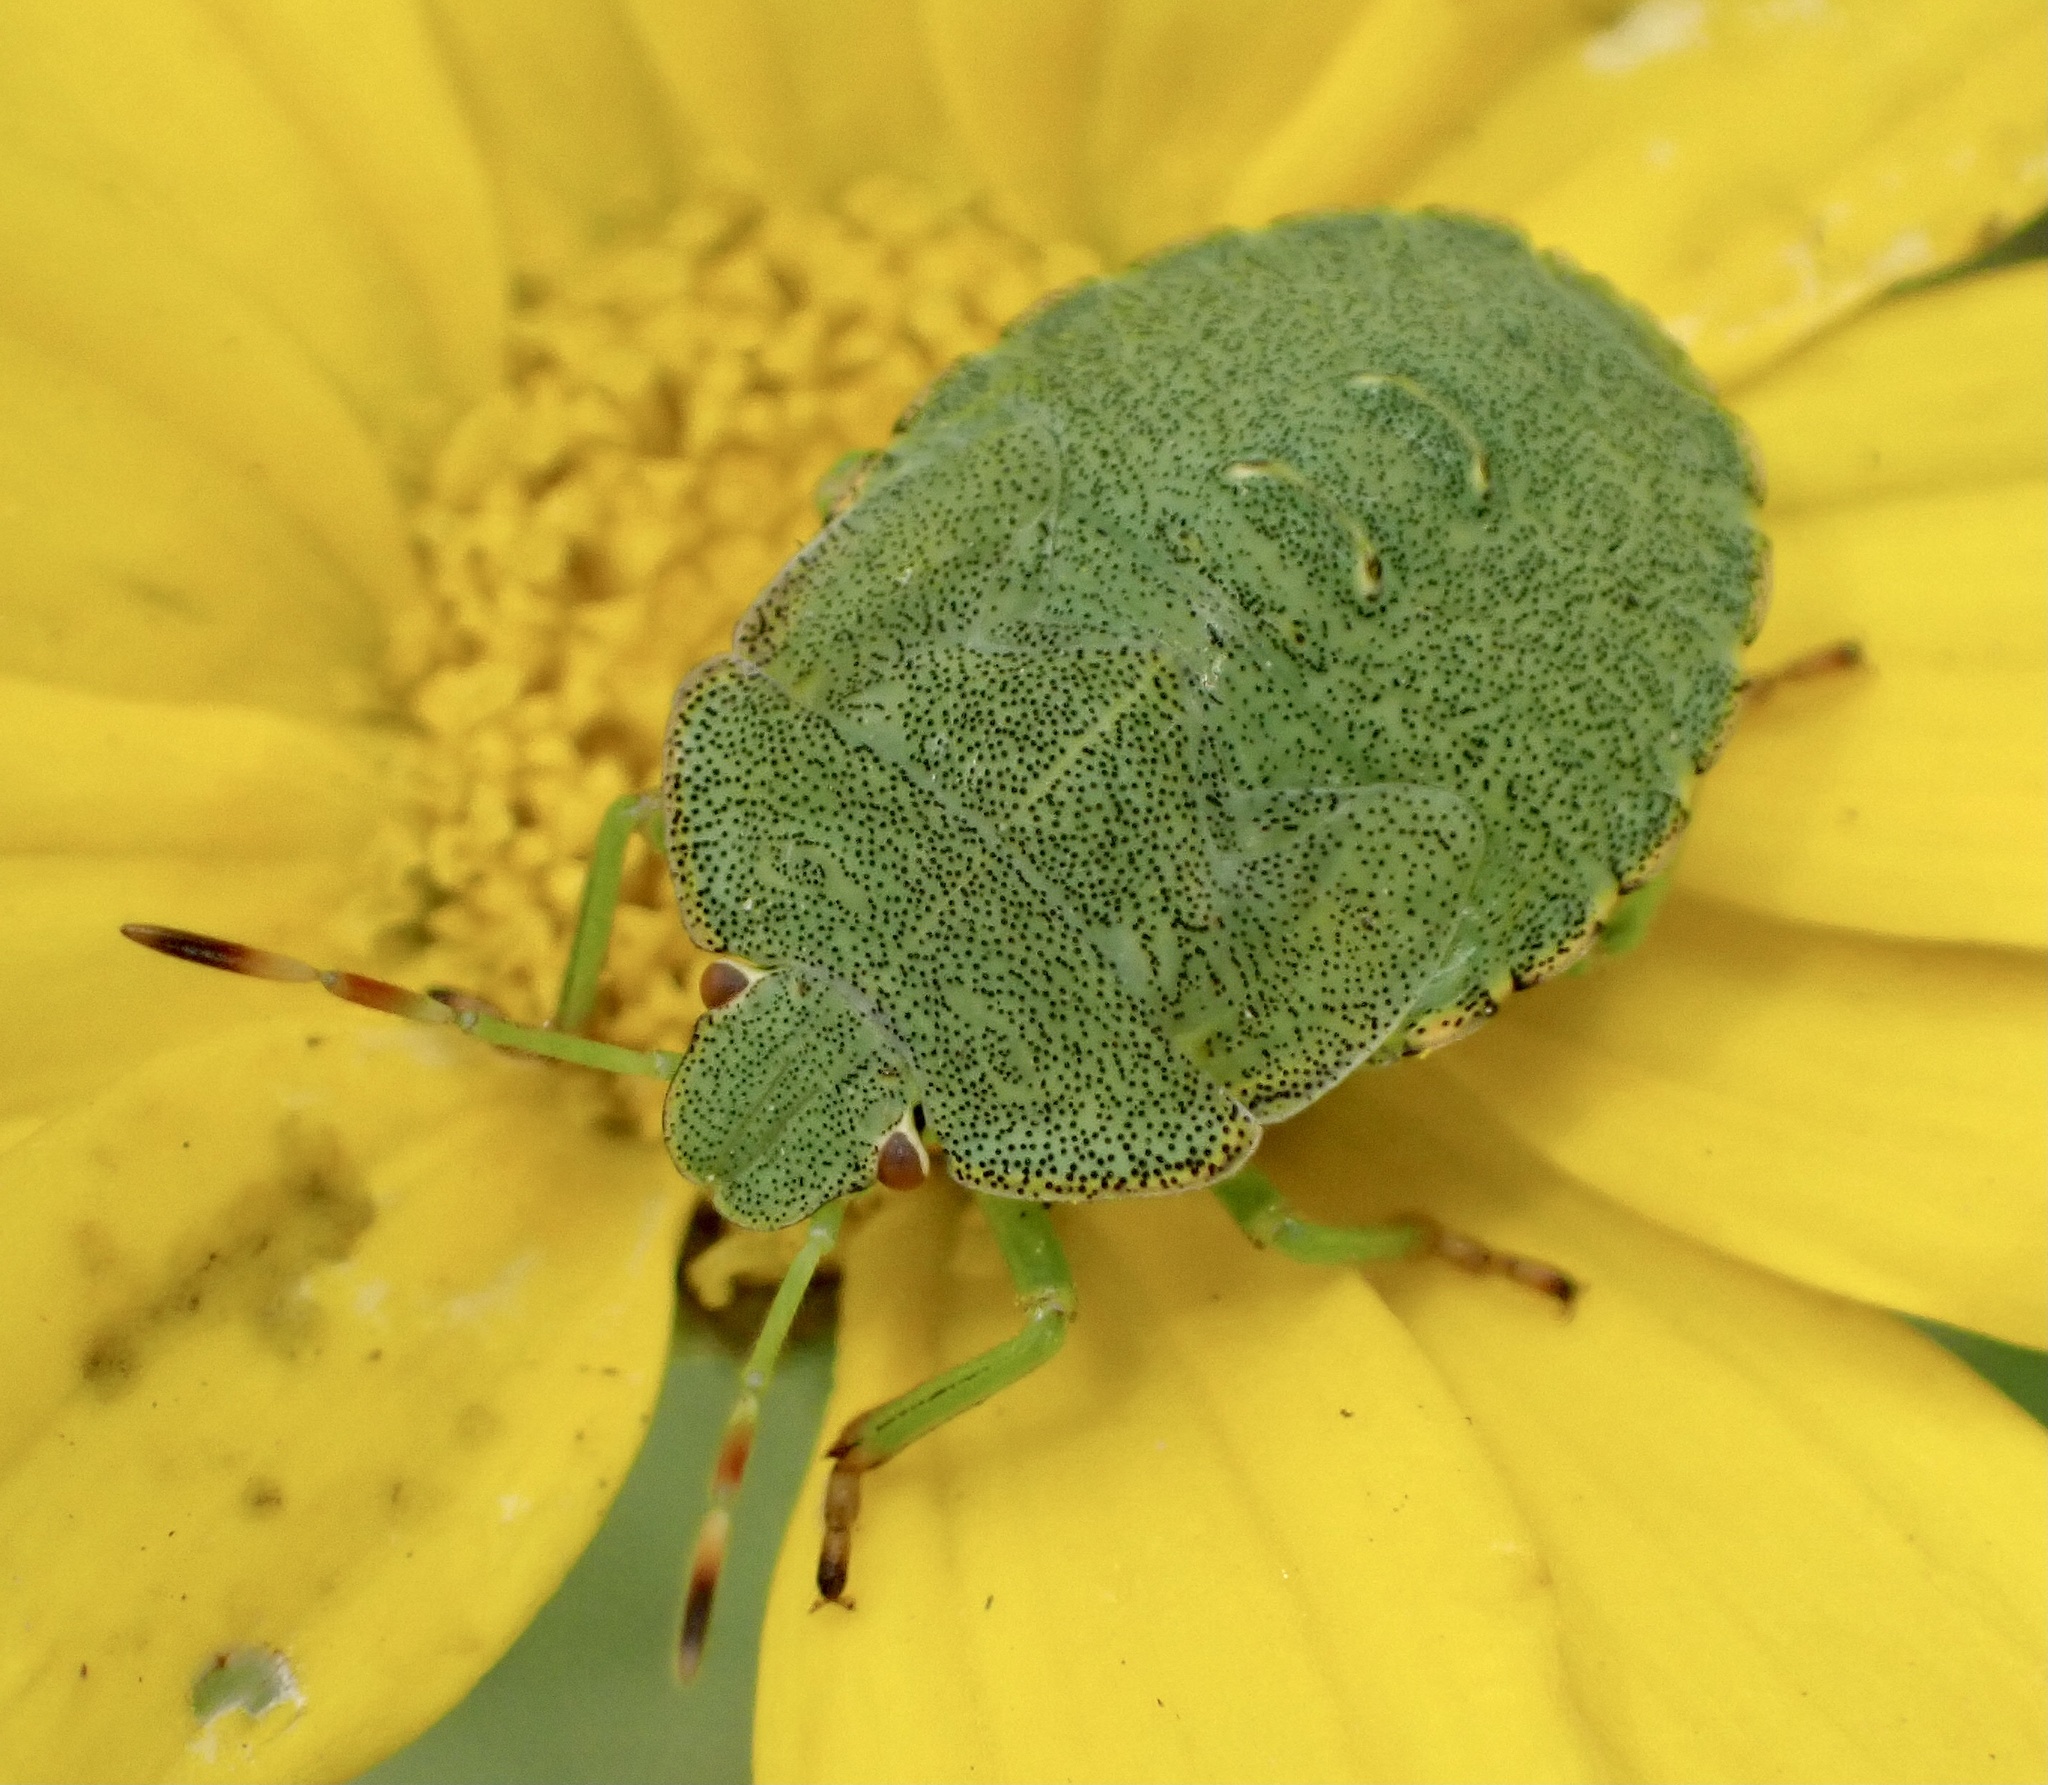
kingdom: Animalia
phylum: Arthropoda
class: Insecta
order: Hemiptera
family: Pentatomidae
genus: Palomena
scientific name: Palomena prasina
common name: Green shieldbug
